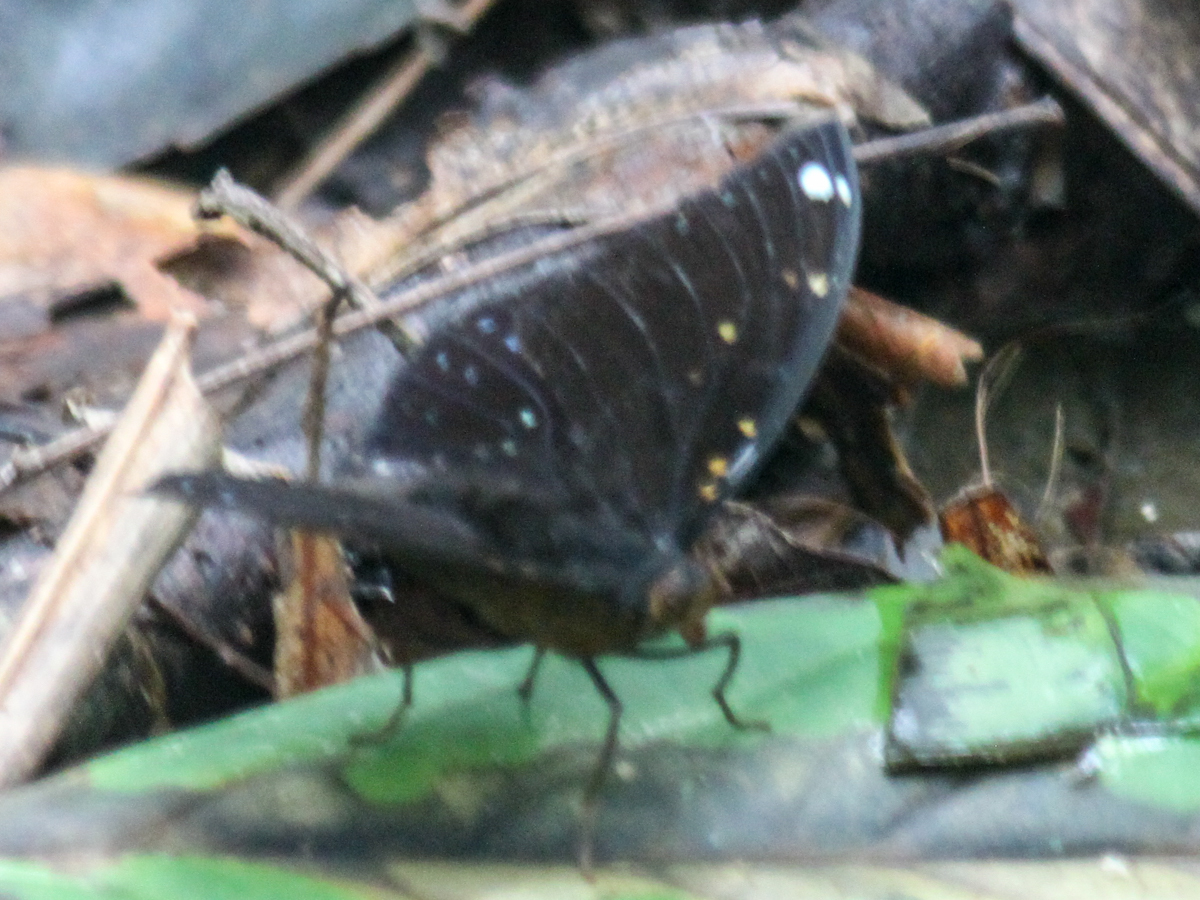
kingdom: Animalia
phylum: Arthropoda
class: Insecta
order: Lepidoptera
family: Nymphalidae
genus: Lexias
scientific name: Lexias
